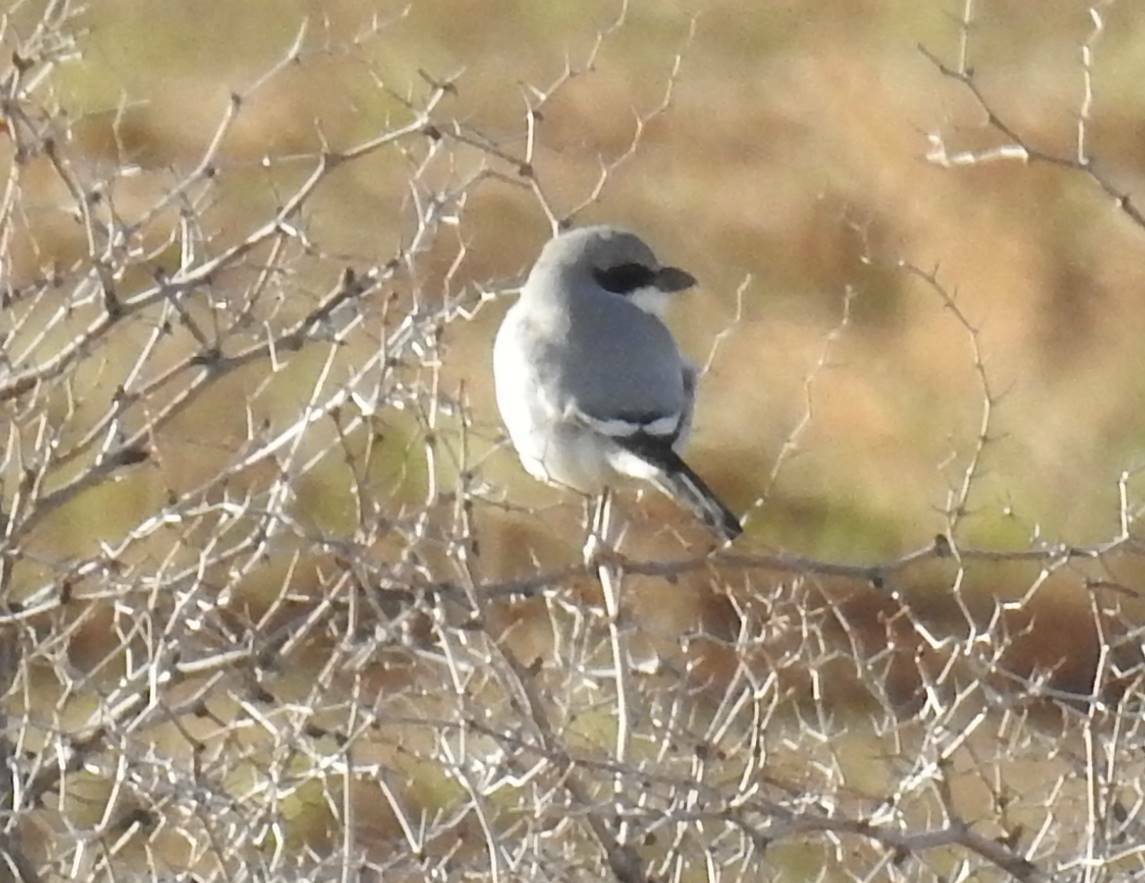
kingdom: Animalia
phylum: Chordata
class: Aves
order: Passeriformes
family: Laniidae
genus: Lanius
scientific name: Lanius excubitor
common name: Great grey shrike
